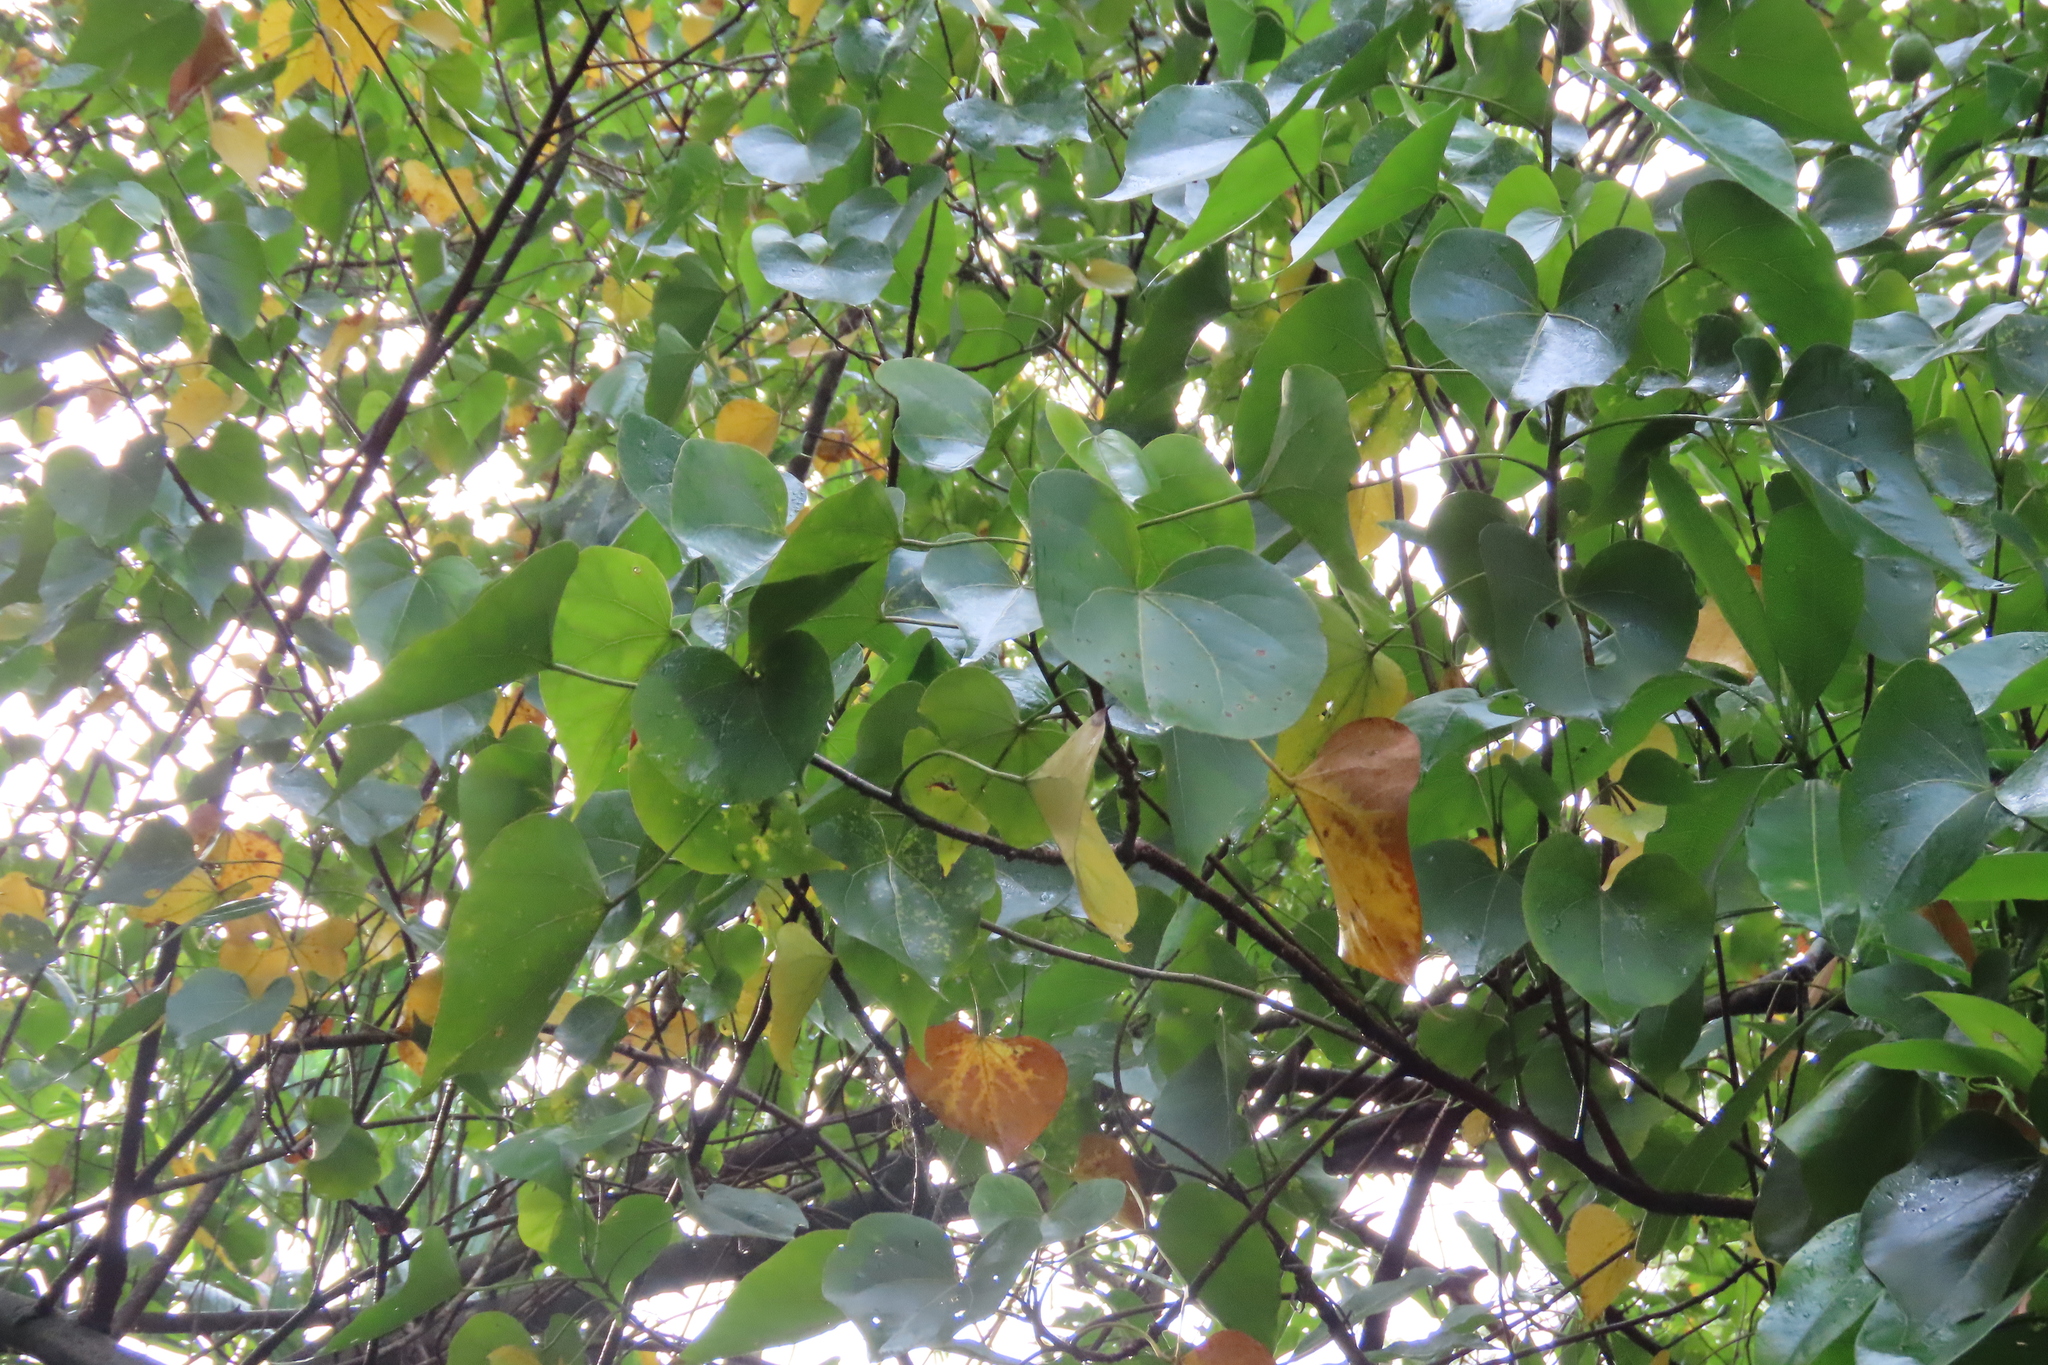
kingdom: Plantae
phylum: Tracheophyta
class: Magnoliopsida
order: Malvales
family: Malvaceae
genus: Talipariti
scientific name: Talipariti tiliaceum
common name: Sea hibiscus
